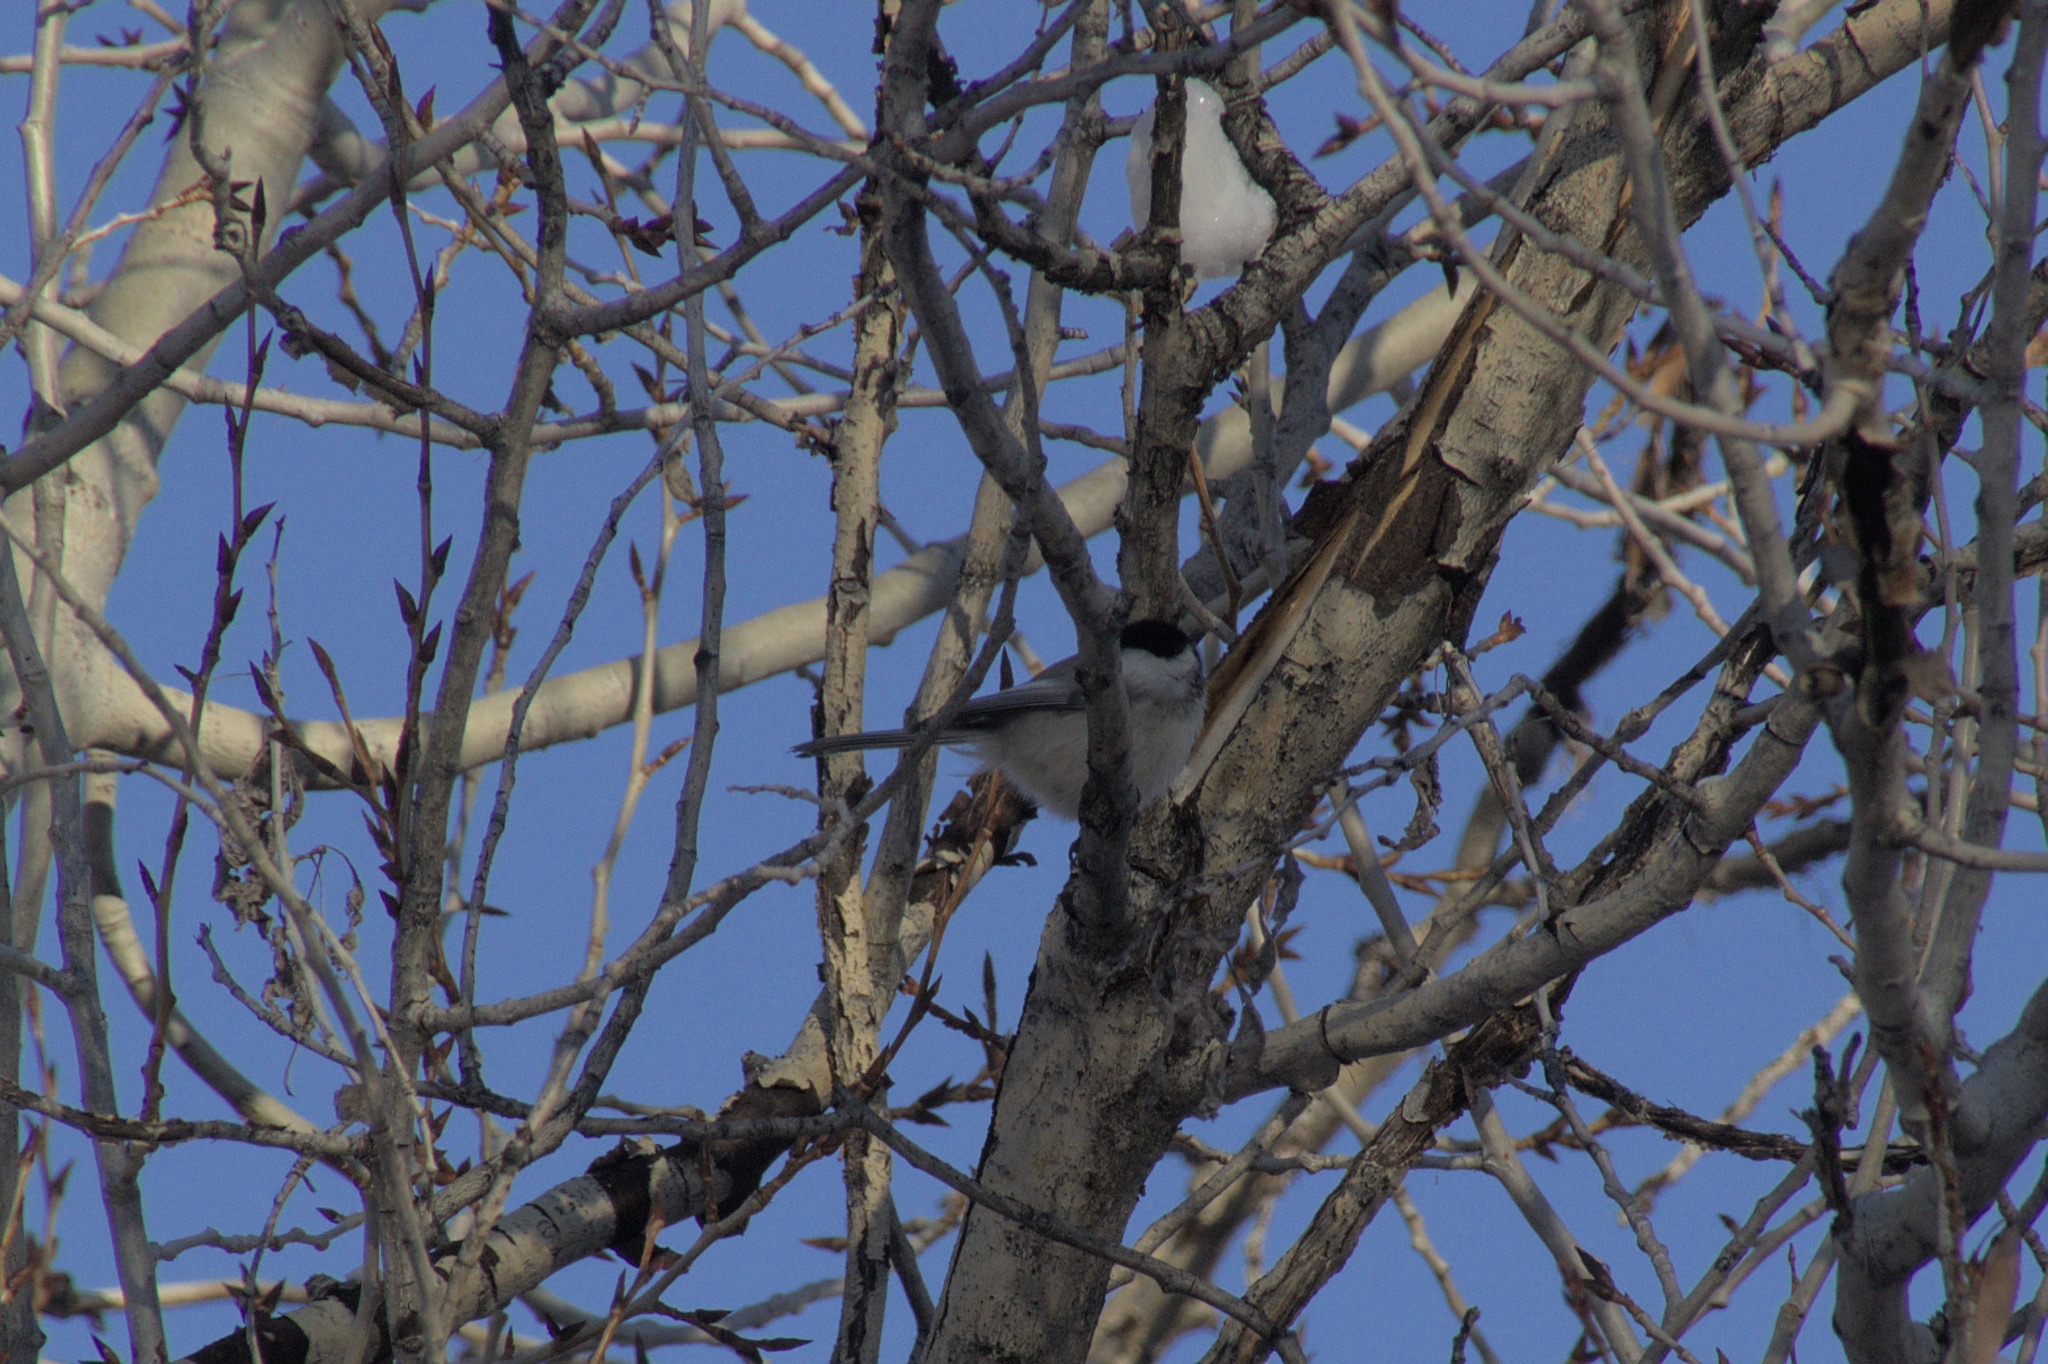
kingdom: Animalia
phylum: Chordata
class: Aves
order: Passeriformes
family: Paridae
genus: Poecile
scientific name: Poecile atricapillus
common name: Black-capped chickadee
